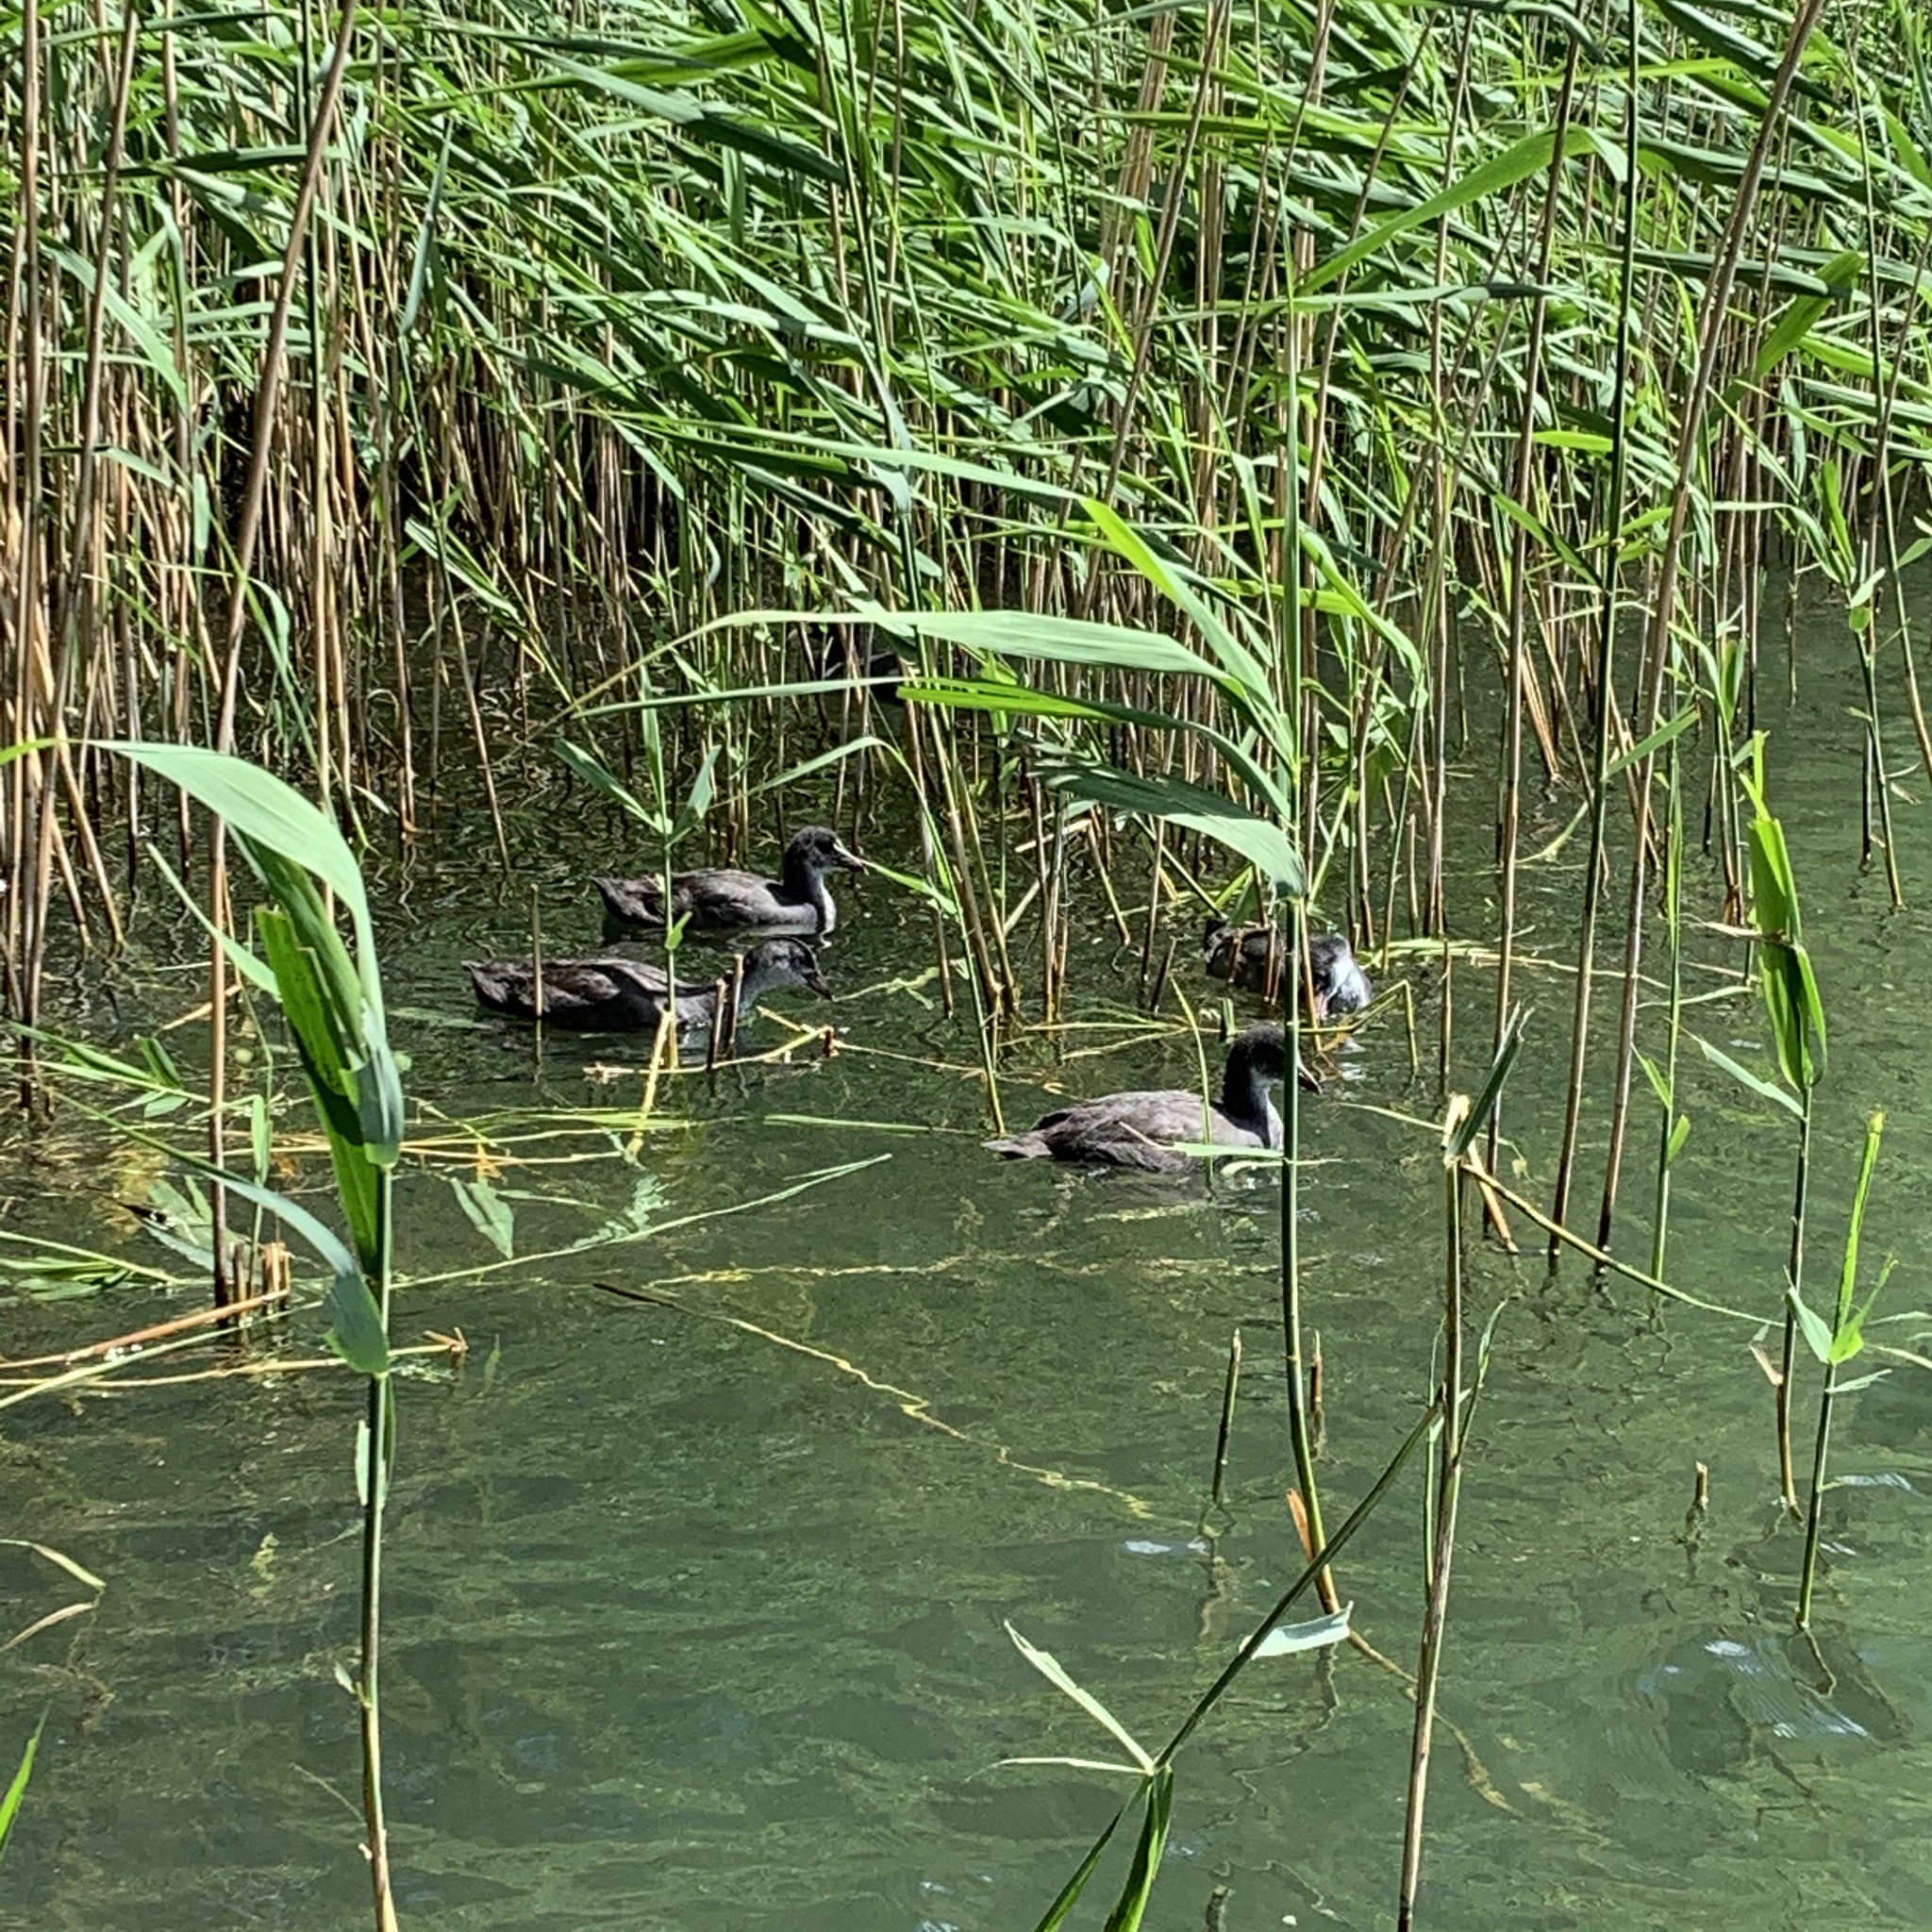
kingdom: Animalia
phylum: Chordata
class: Aves
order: Gruiformes
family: Rallidae
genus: Fulica
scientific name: Fulica atra
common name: Eurasian coot
